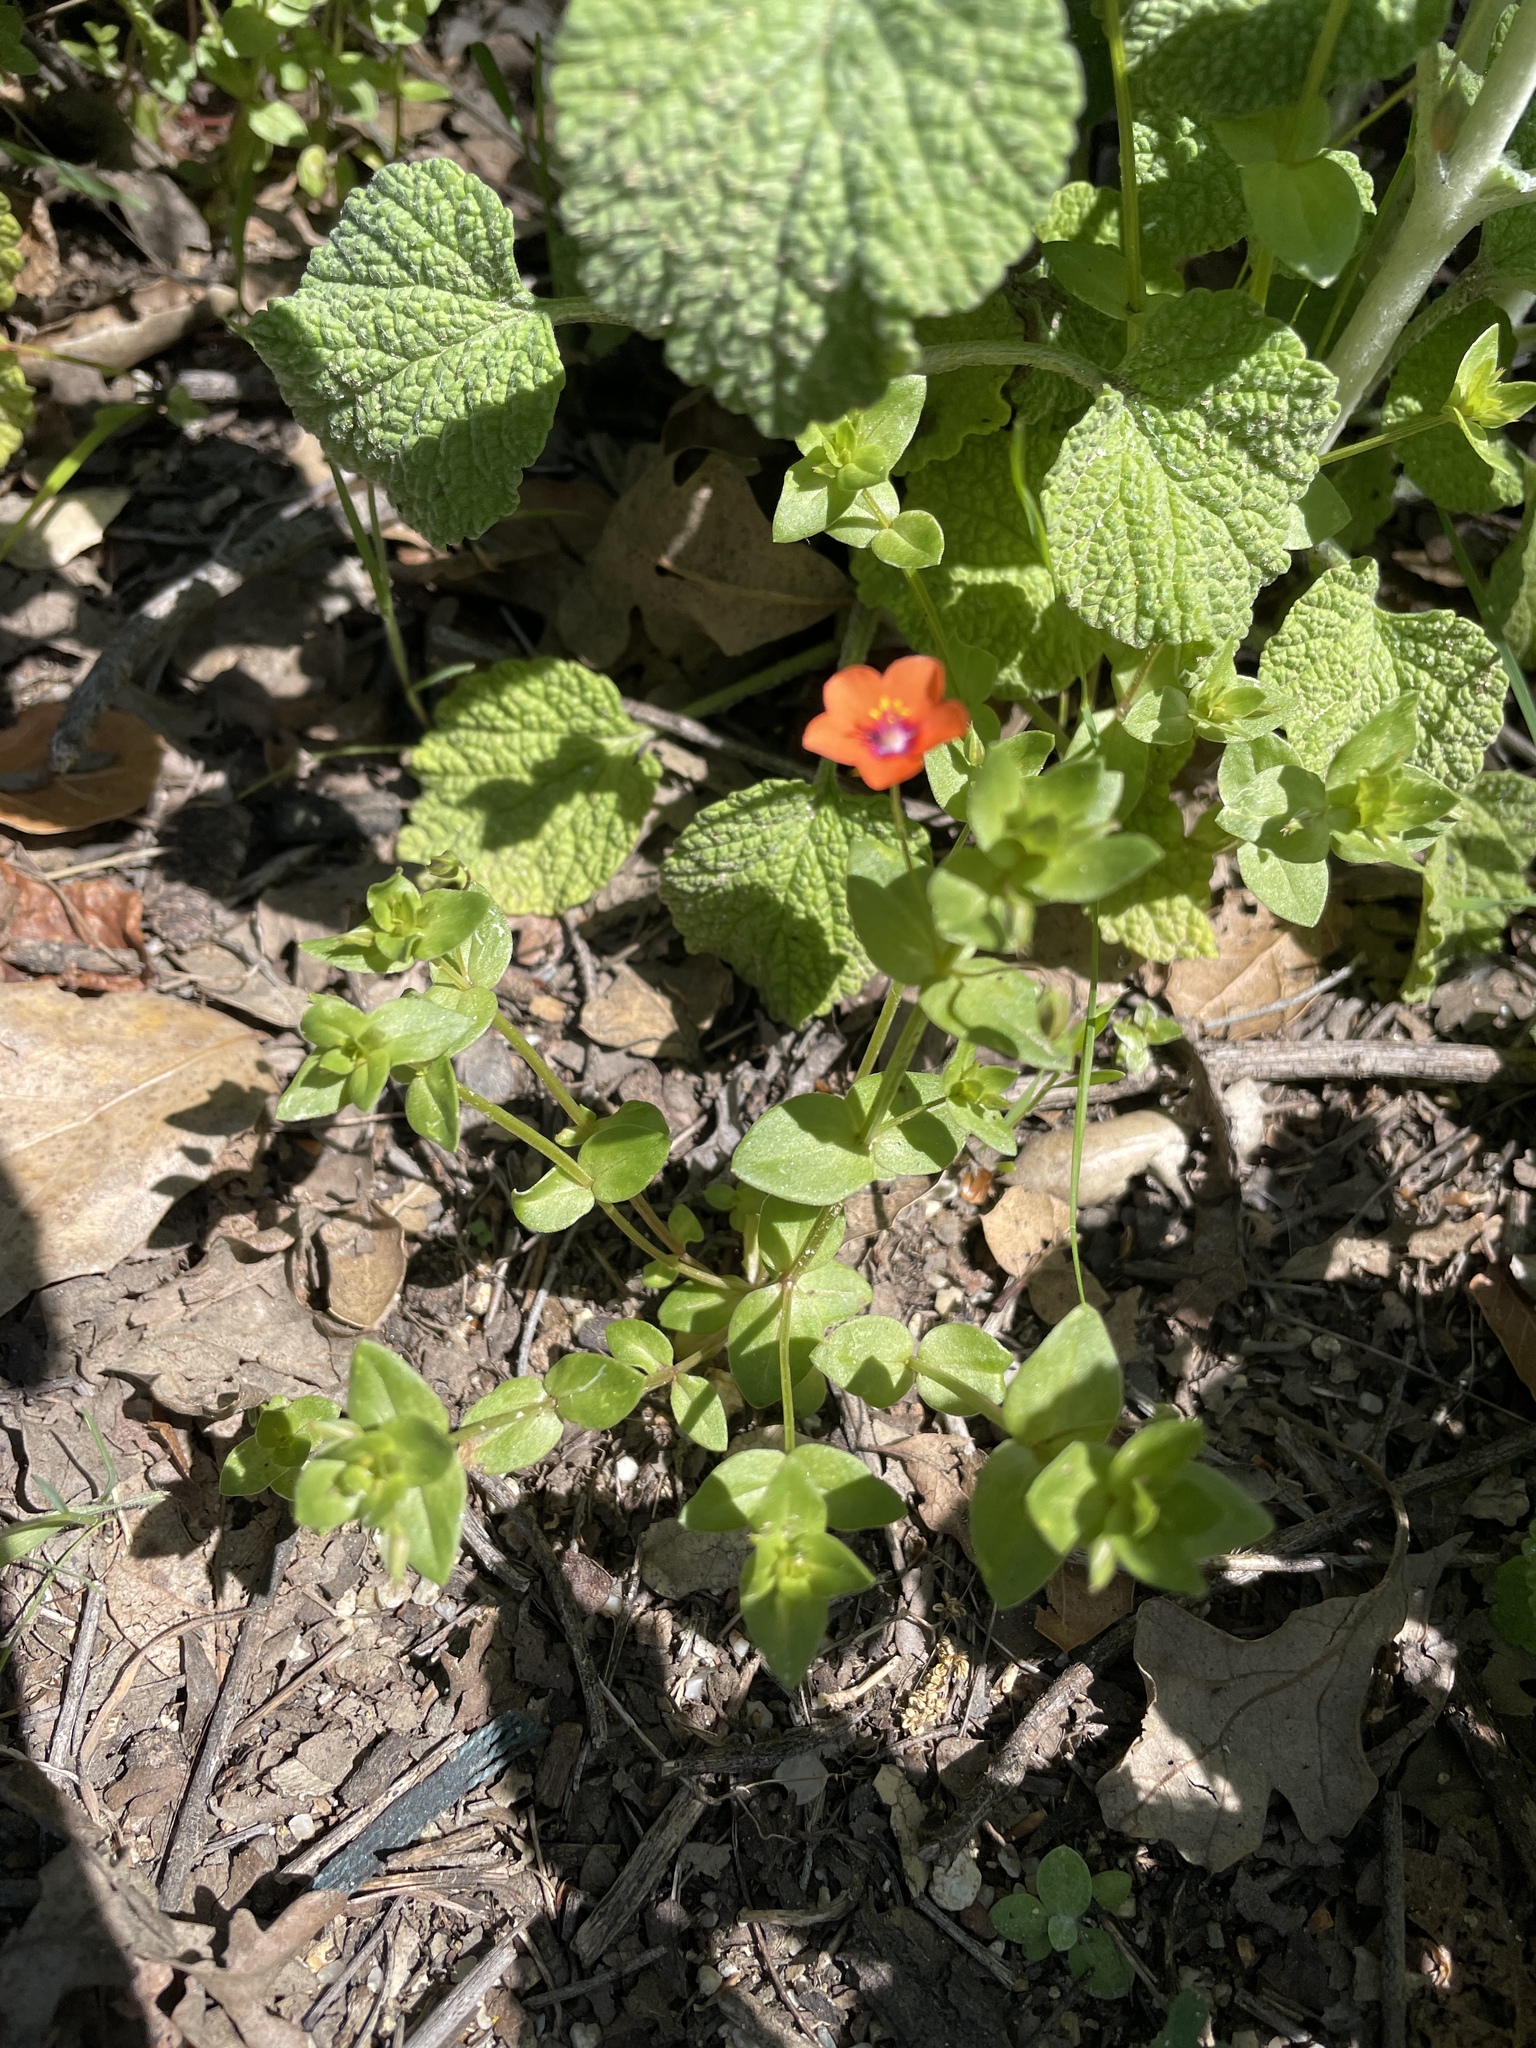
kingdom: Plantae
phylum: Tracheophyta
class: Magnoliopsida
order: Ericales
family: Primulaceae
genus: Lysimachia
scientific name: Lysimachia arvensis
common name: Scarlet pimpernel
